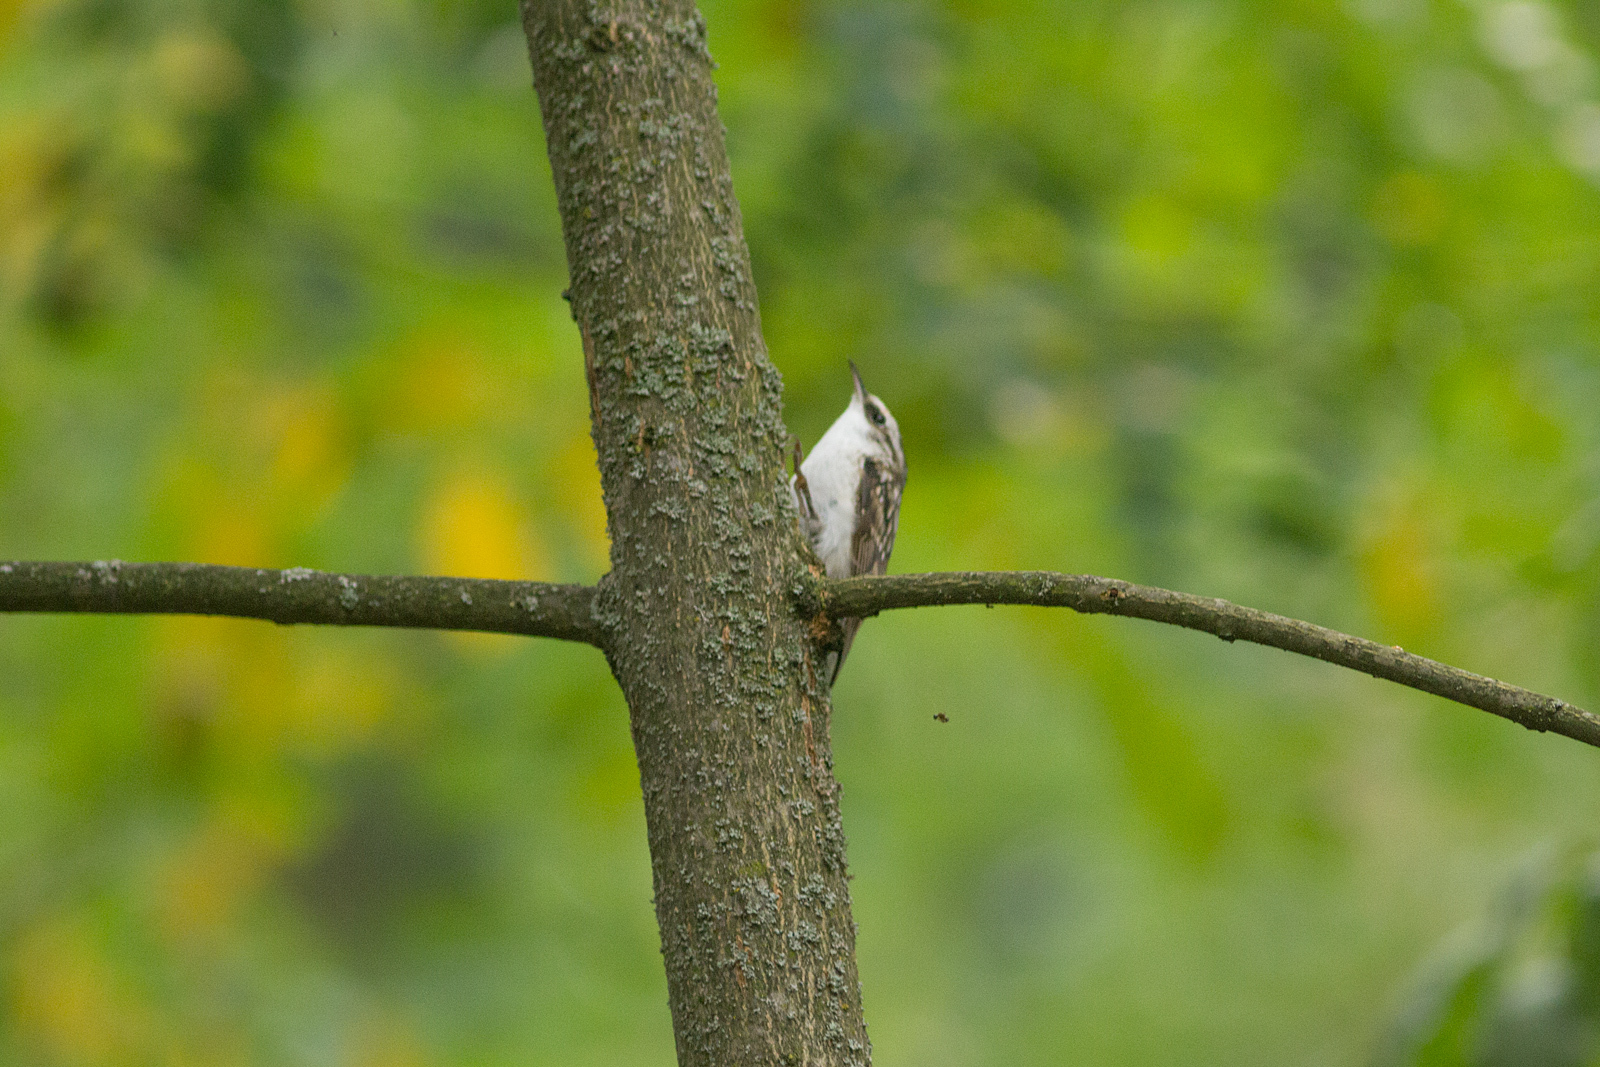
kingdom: Animalia
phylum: Chordata
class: Aves
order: Passeriformes
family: Certhiidae
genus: Certhia
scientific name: Certhia familiaris
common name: Eurasian treecreeper
